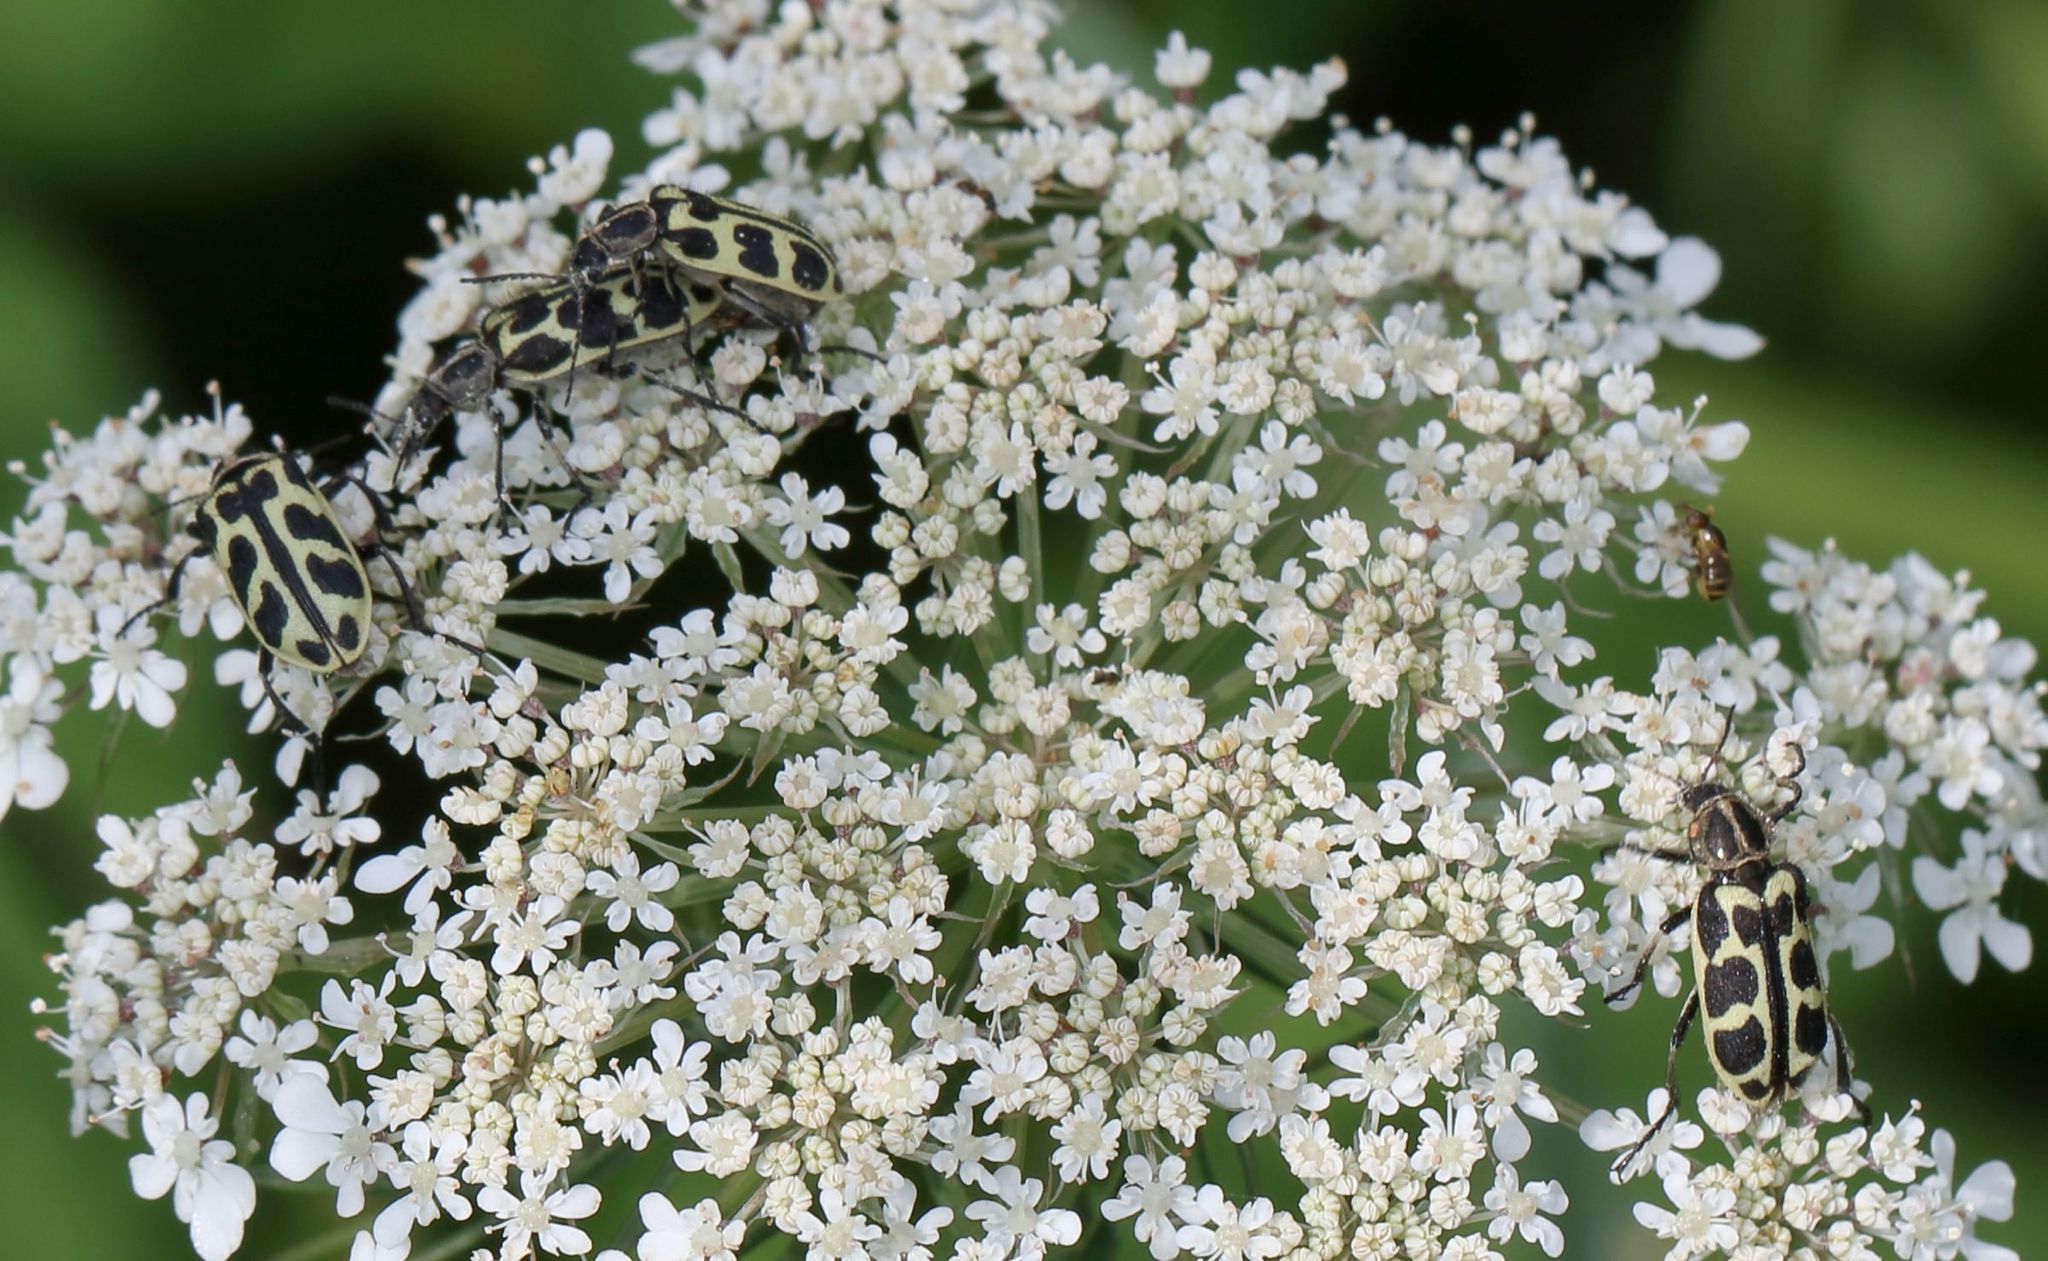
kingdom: Animalia
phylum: Arthropoda
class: Insecta
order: Coleoptera
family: Melyridae
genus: Astylus
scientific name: Astylus atromaculatus
